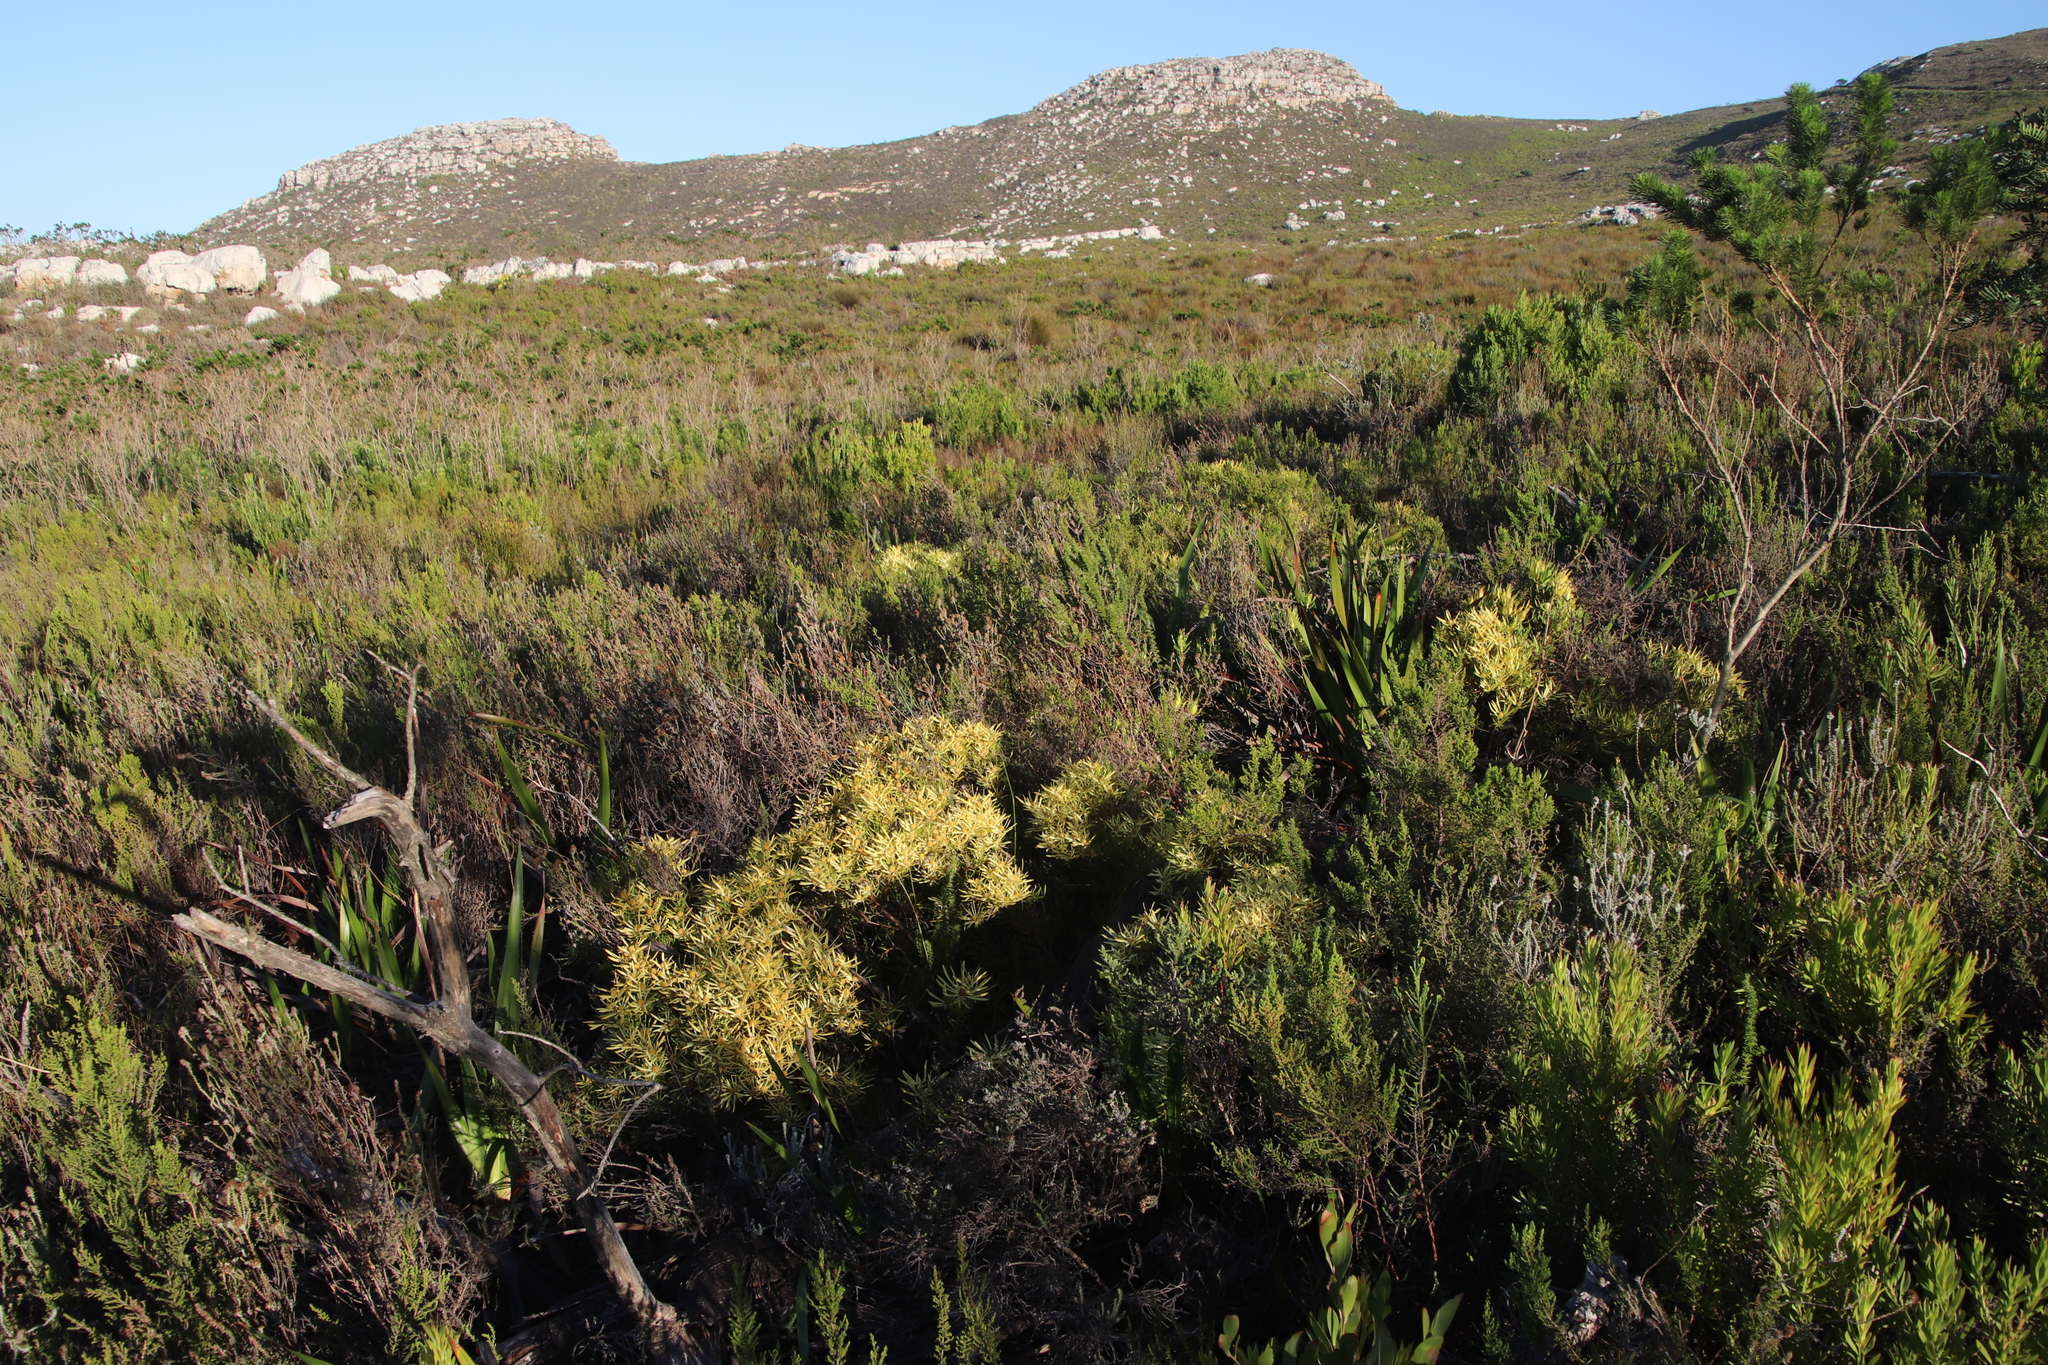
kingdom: Plantae
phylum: Tracheophyta
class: Magnoliopsida
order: Proteales
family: Proteaceae
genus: Leucadendron
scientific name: Leucadendron salignum
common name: Common sunshine conebush
